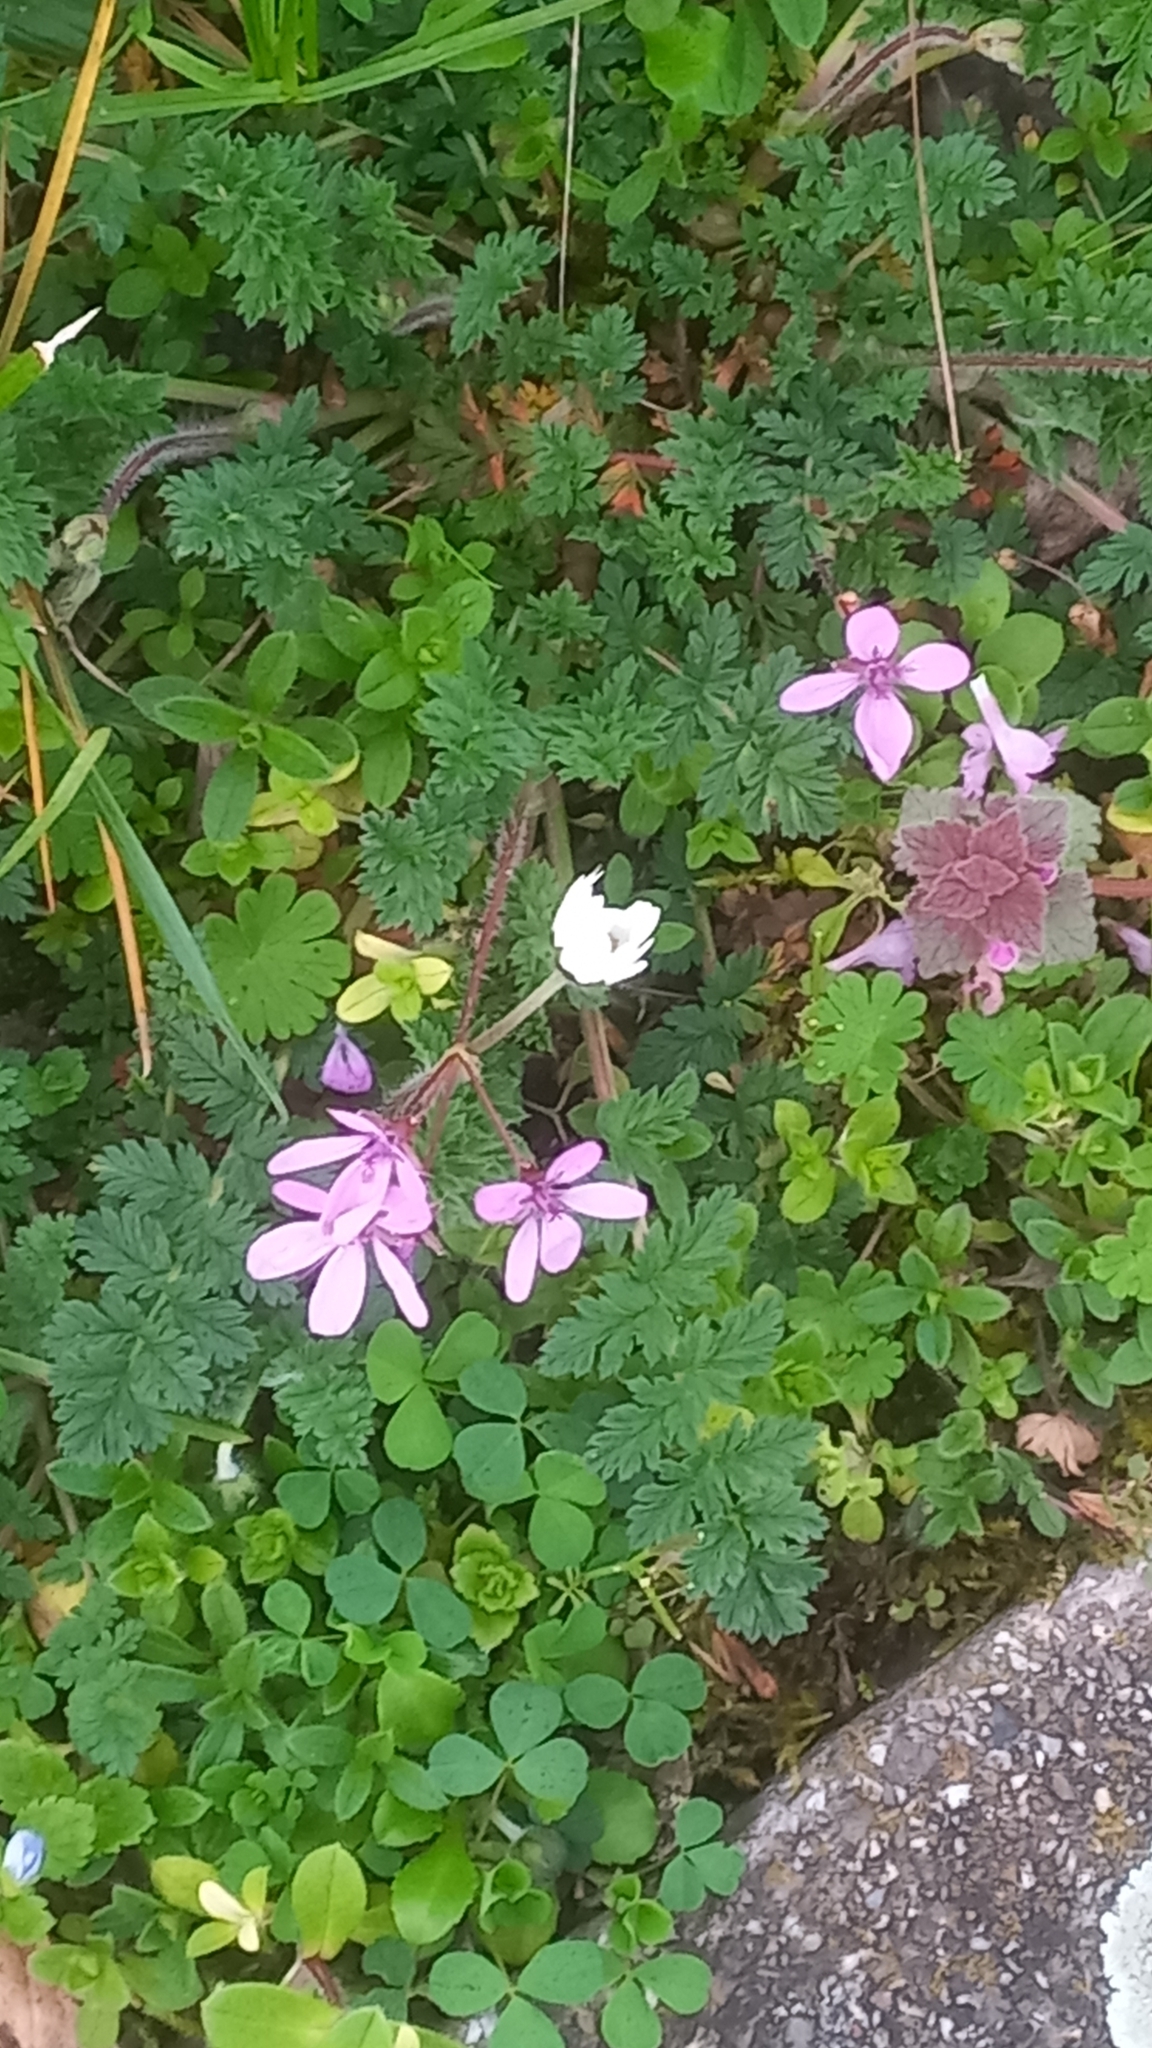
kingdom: Plantae
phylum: Tracheophyta
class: Magnoliopsida
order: Geraniales
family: Geraniaceae
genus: Erodium
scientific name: Erodium cicutarium
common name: Common stork's-bill
